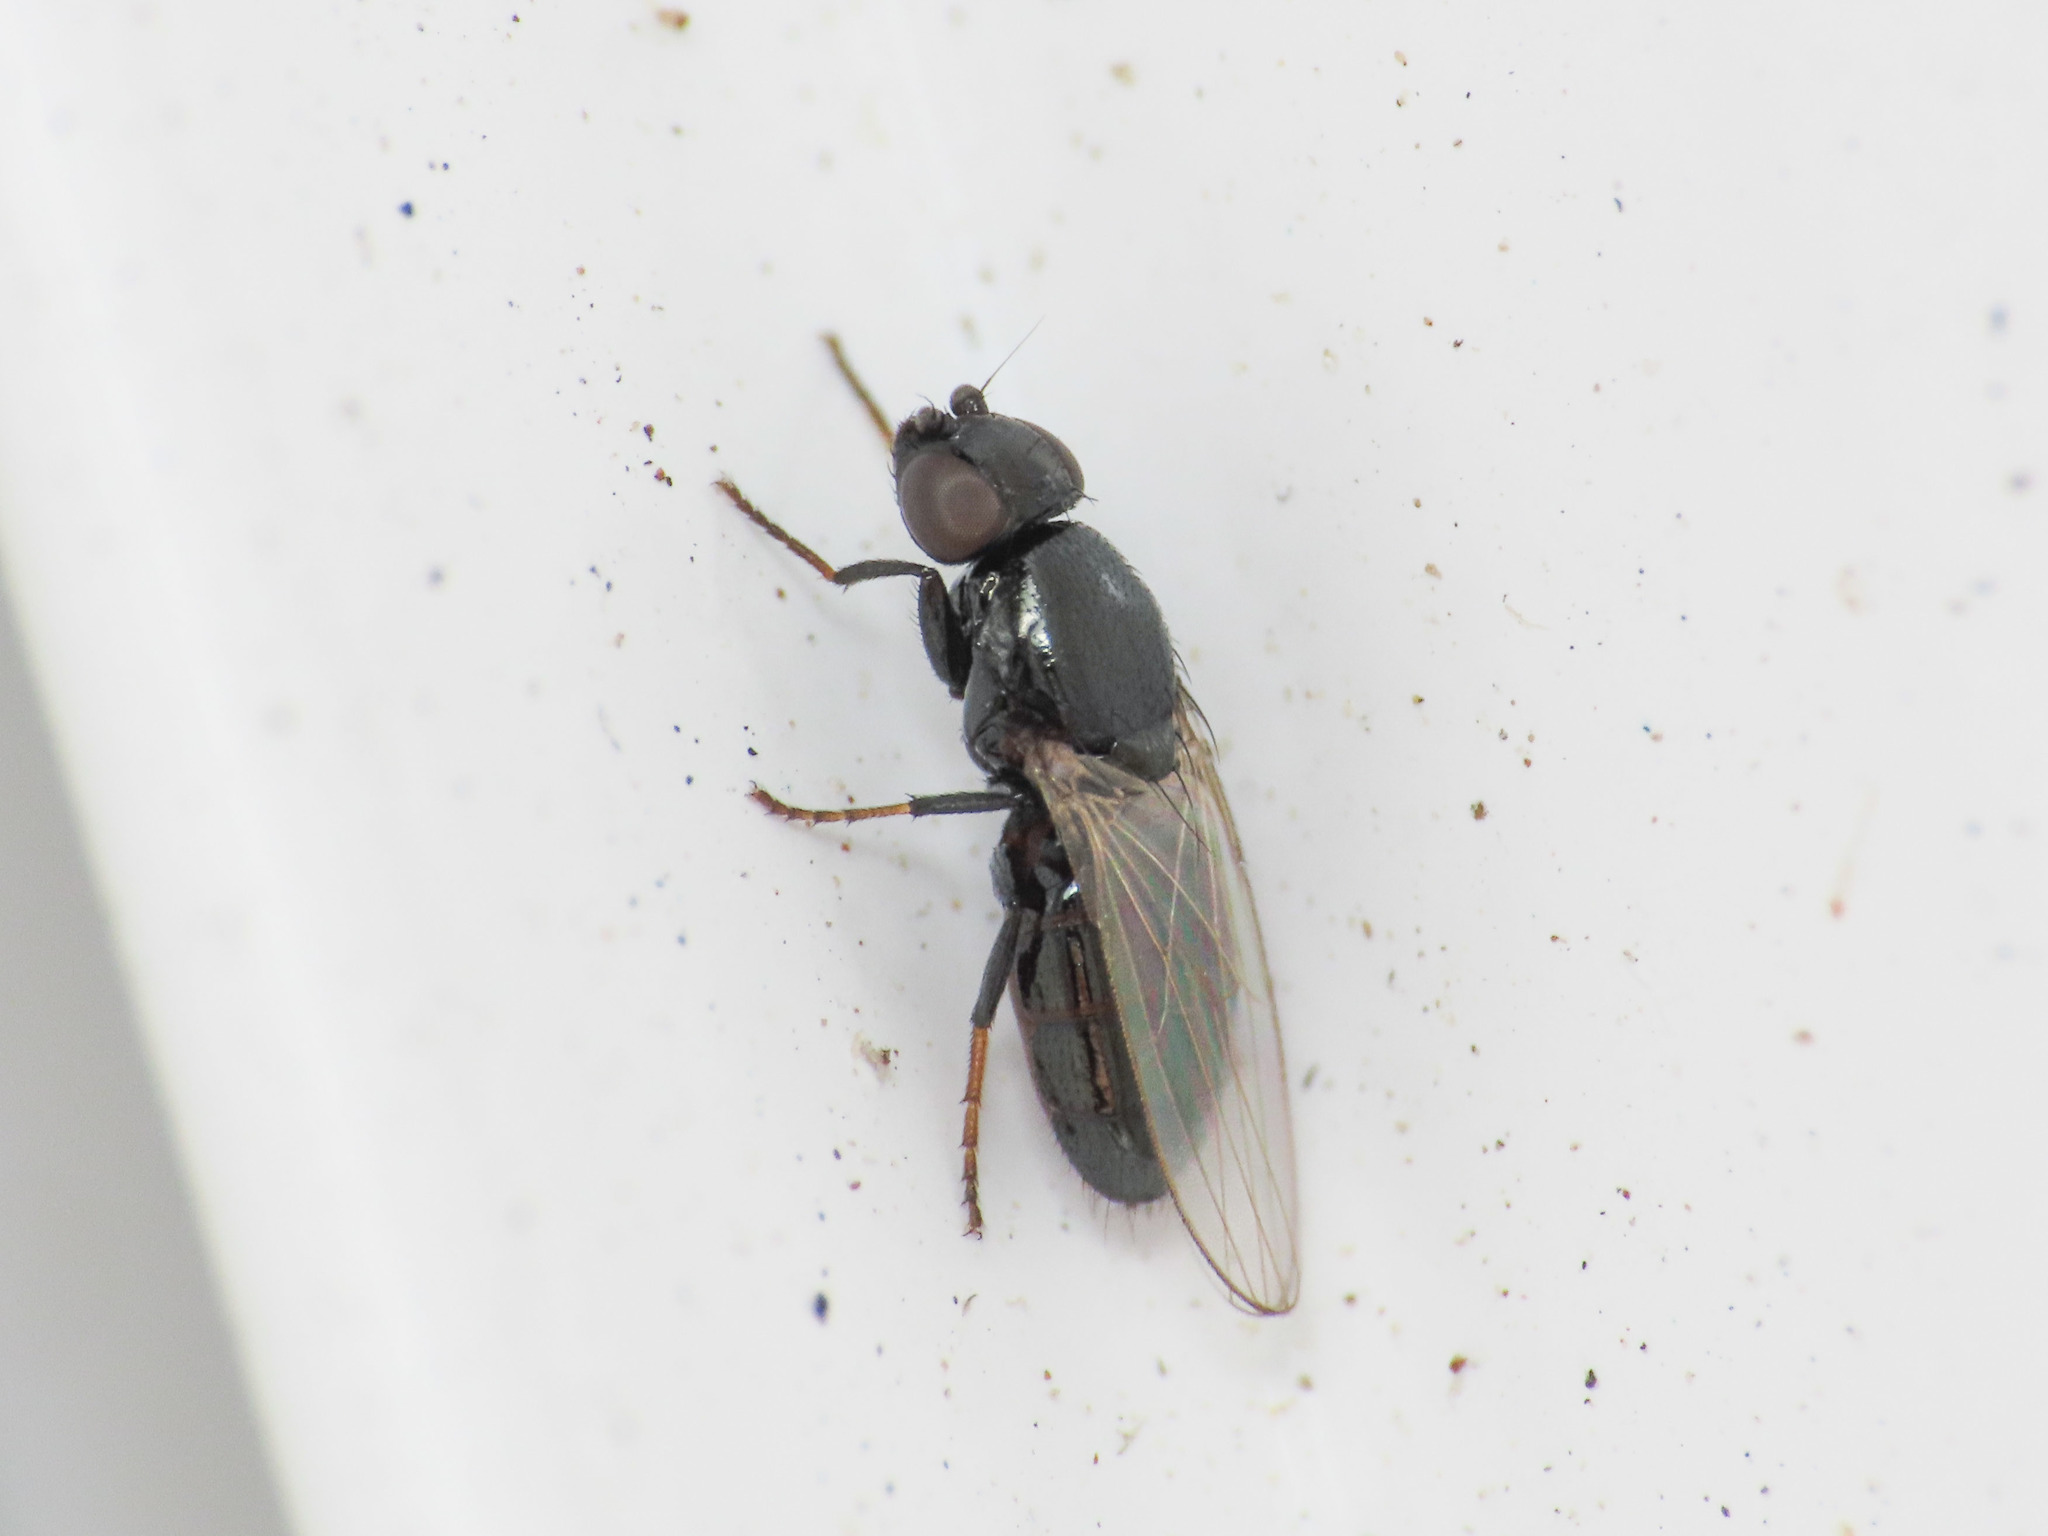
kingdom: Animalia
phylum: Arthropoda
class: Insecta
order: Diptera
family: Milichiidae
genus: Madiza
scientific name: Madiza glabra
